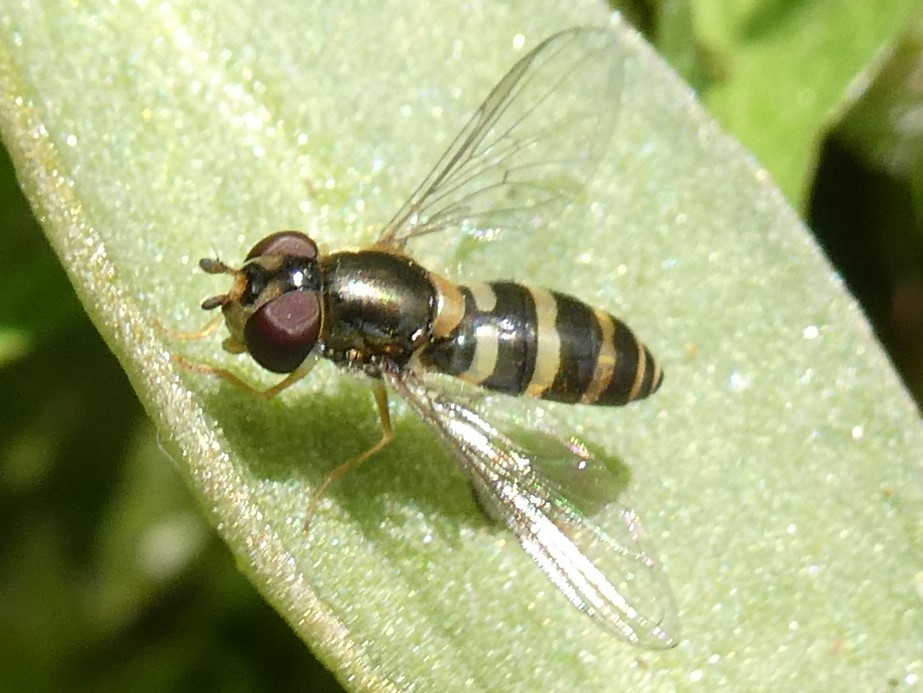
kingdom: Animalia
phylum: Arthropoda
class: Insecta
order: Diptera
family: Syrphidae
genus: Parasyrphus
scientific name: Parasyrphus
